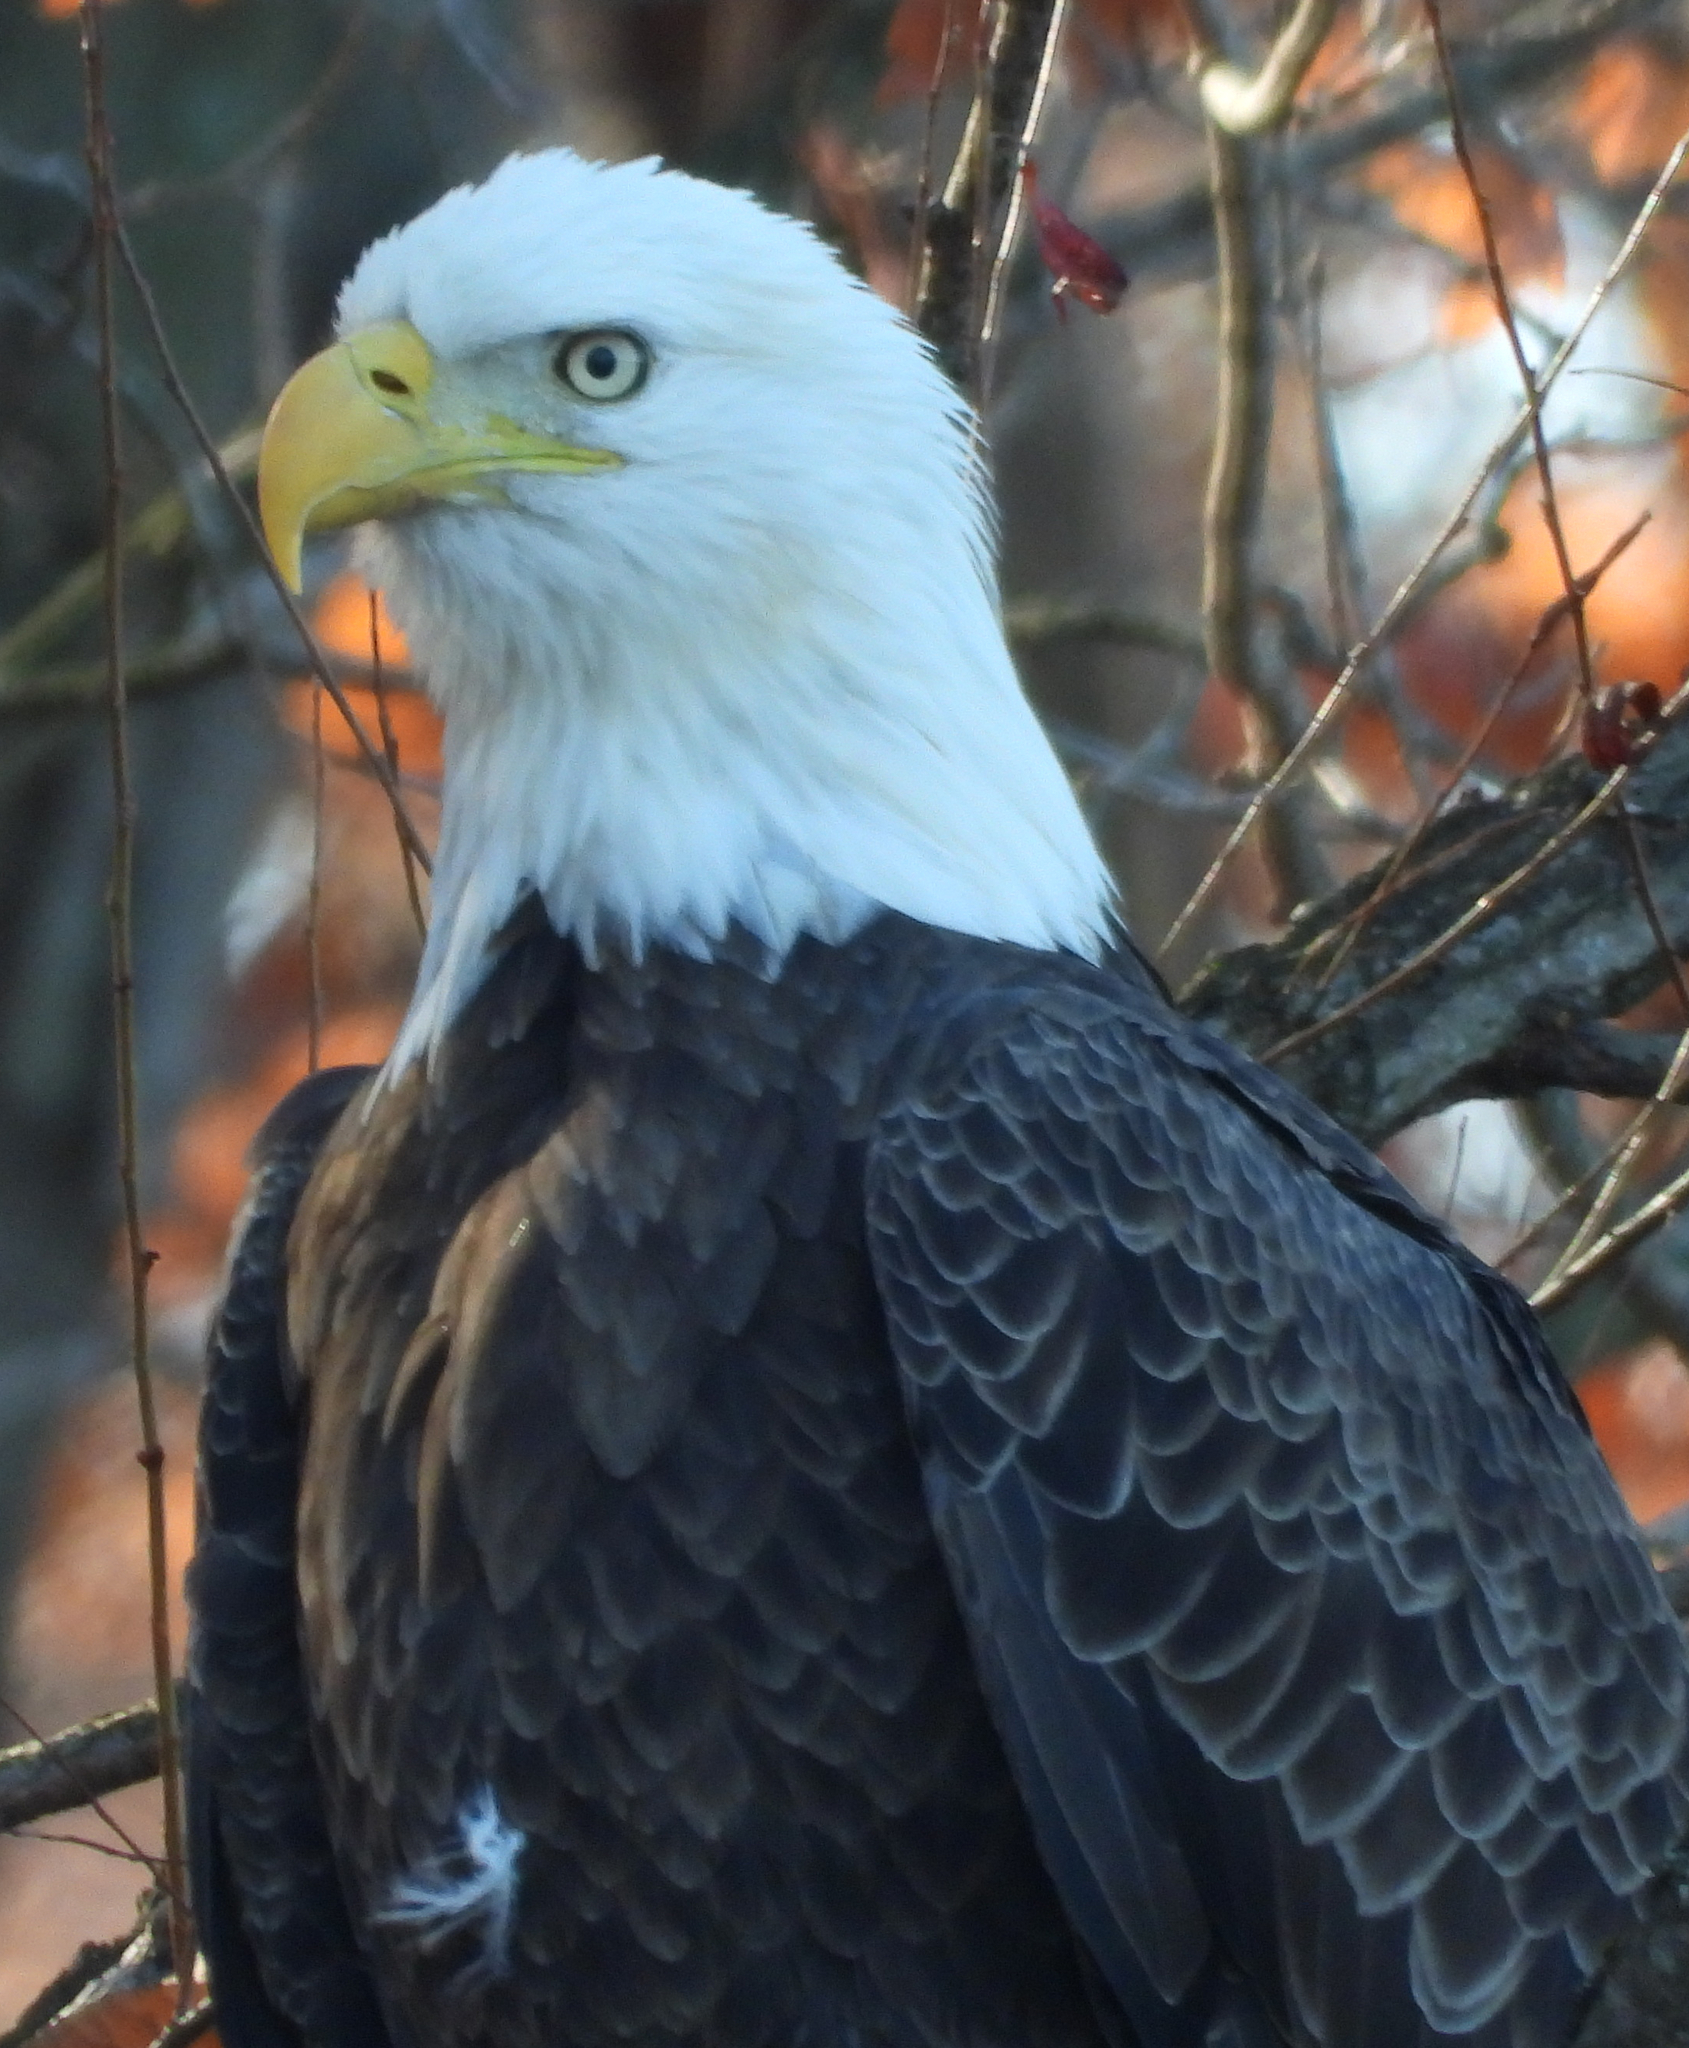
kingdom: Animalia
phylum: Chordata
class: Aves
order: Accipitriformes
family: Accipitridae
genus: Haliaeetus
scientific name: Haliaeetus leucocephalus
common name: Bald eagle
